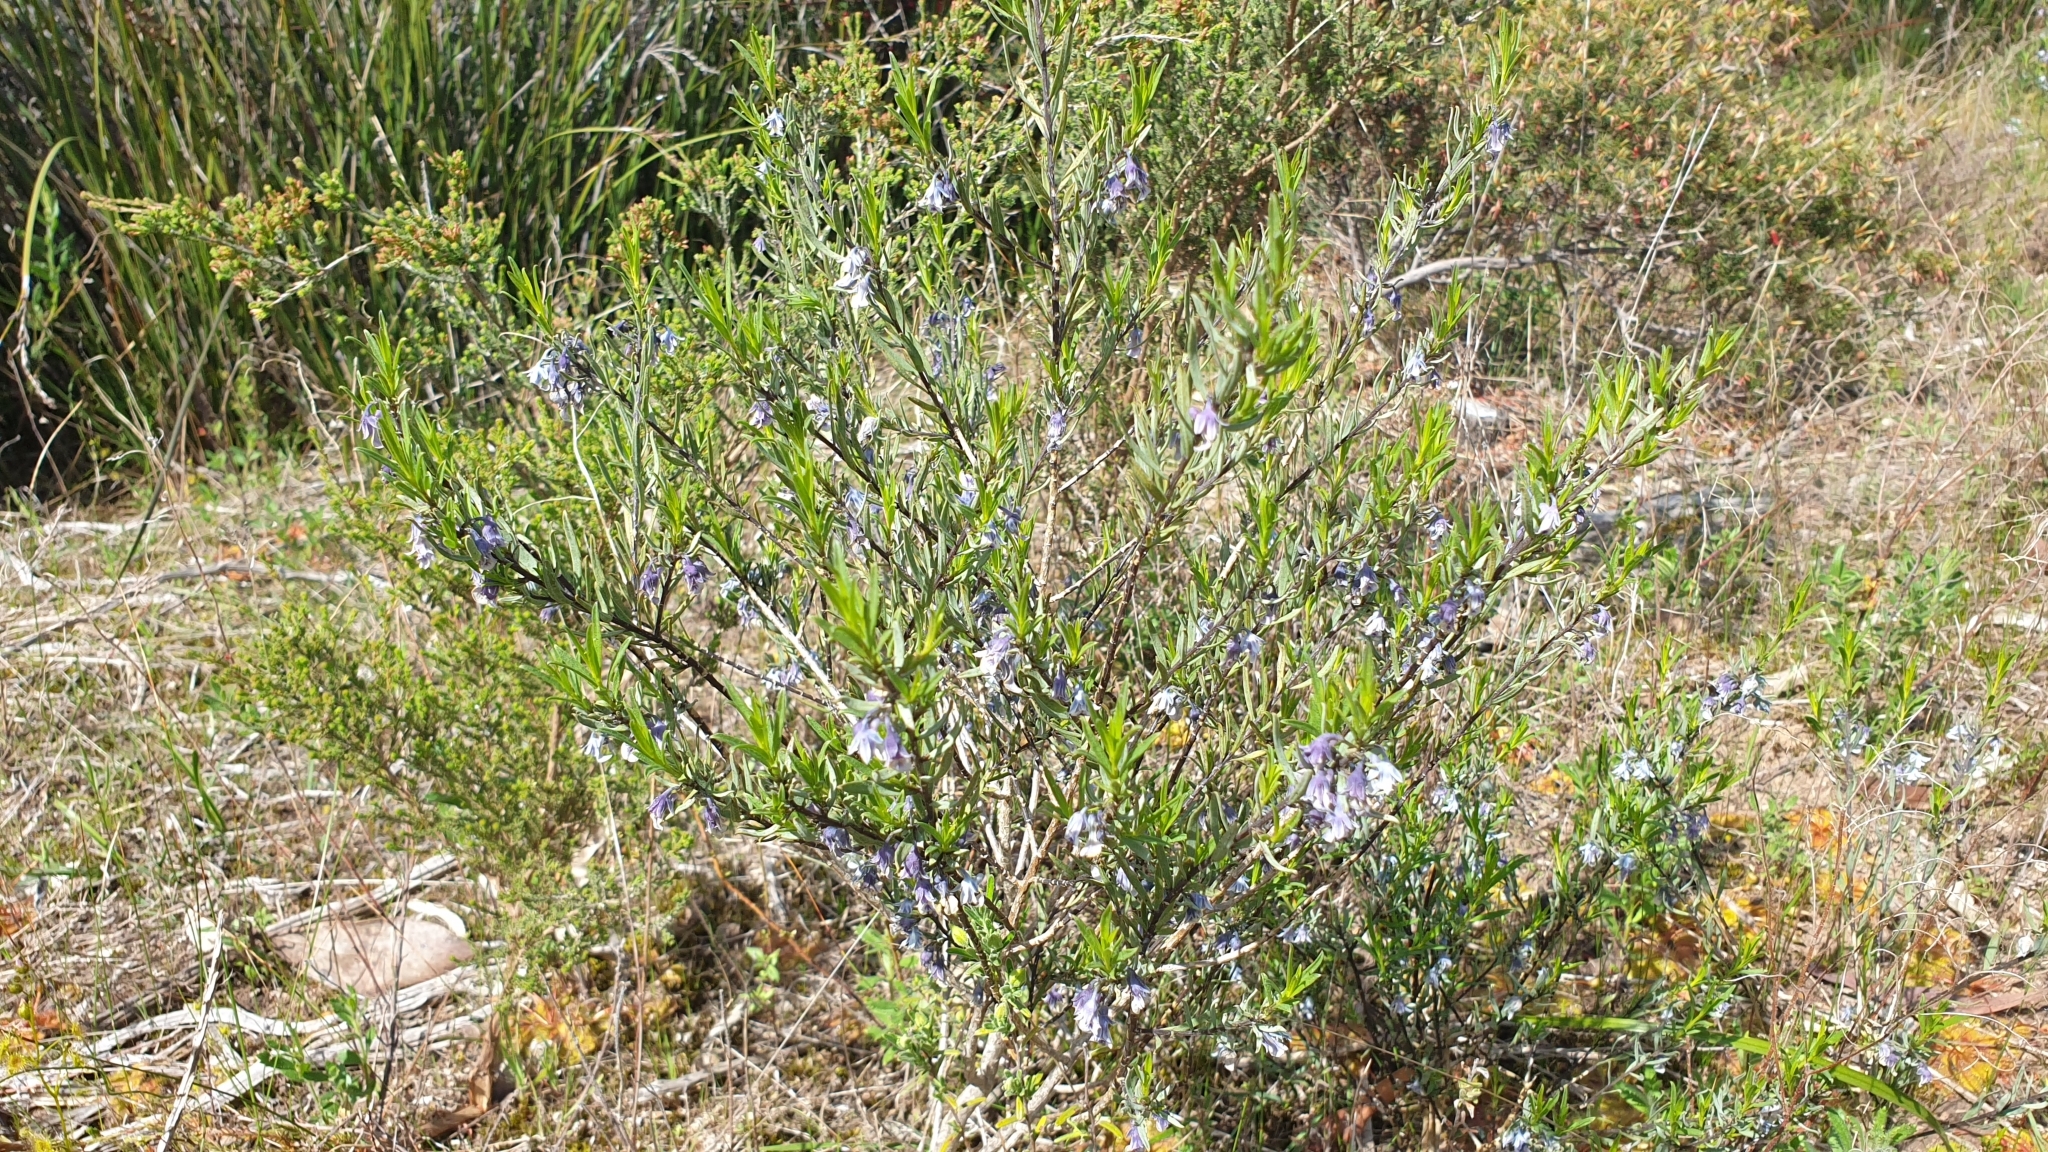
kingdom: Plantae
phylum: Tracheophyta
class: Magnoliopsida
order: Malpighiales
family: Violaceae
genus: Pigea
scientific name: Pigea floribunda
